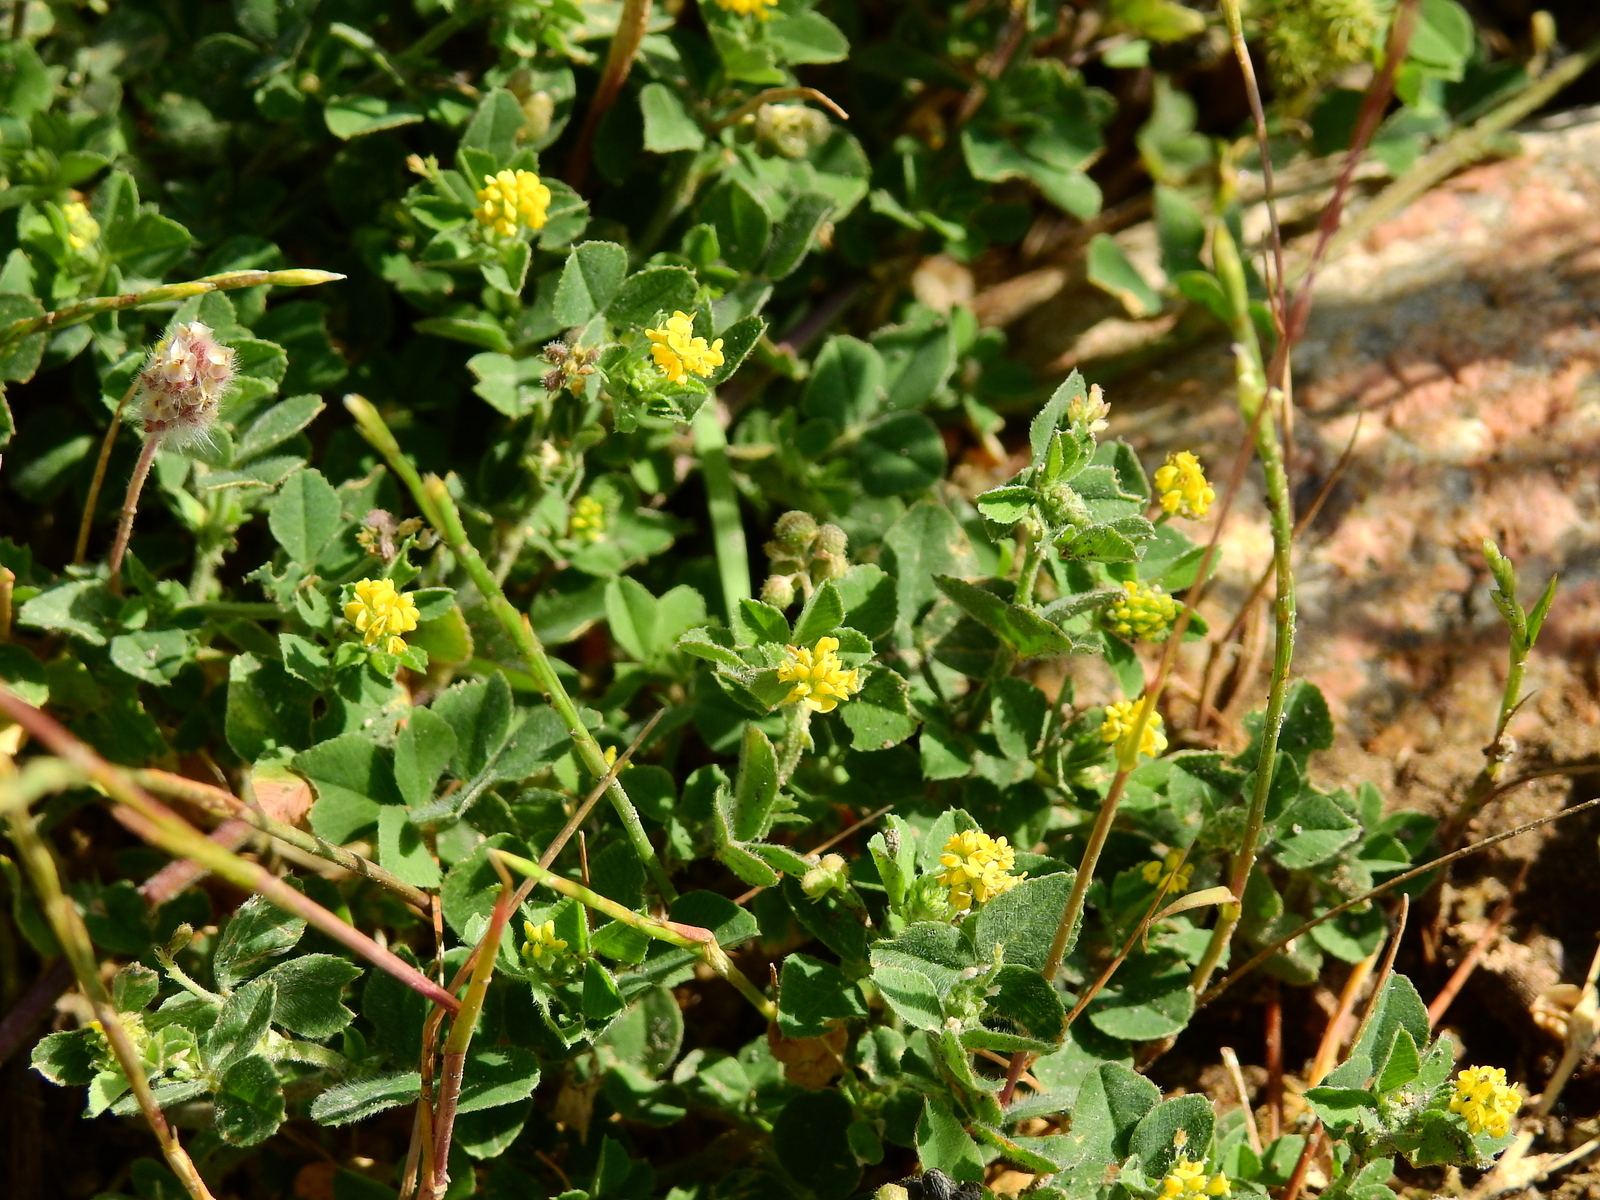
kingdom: Plantae
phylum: Tracheophyta
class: Magnoliopsida
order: Fabales
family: Fabaceae
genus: Medicago
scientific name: Medicago lupulina
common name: Black medick
